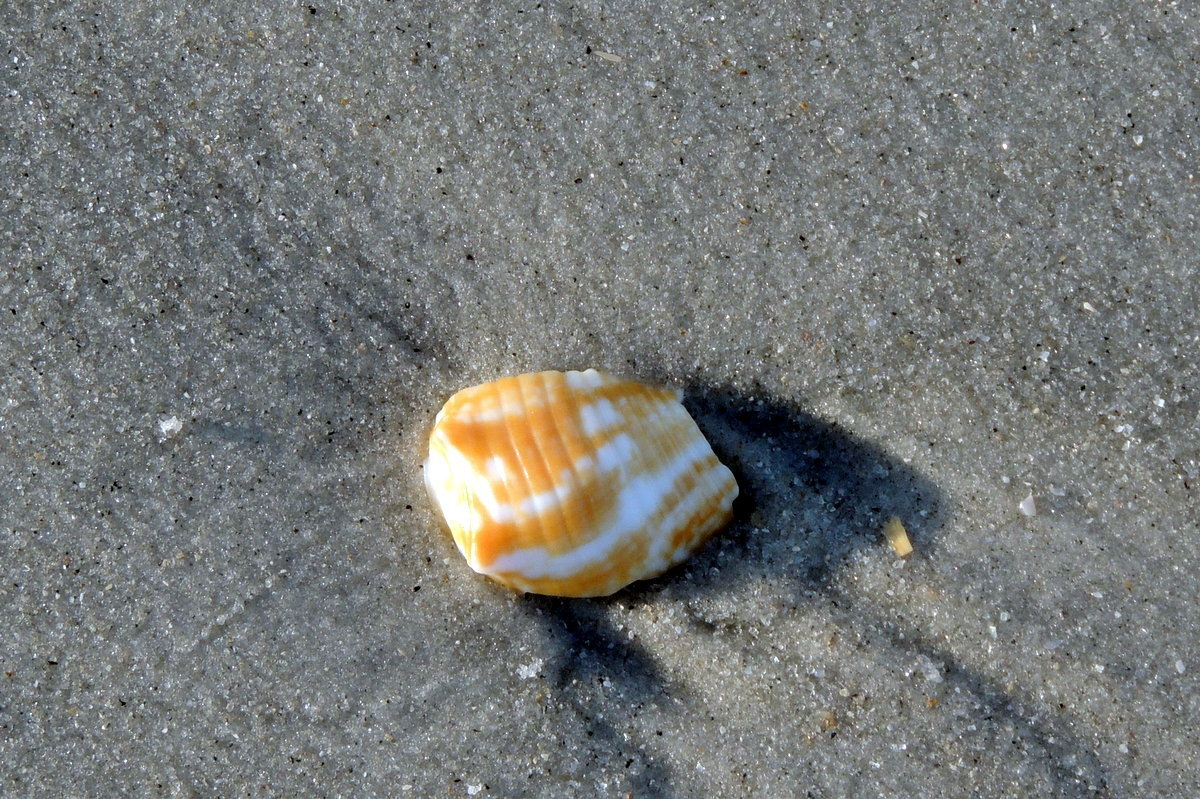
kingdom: Animalia
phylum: Mollusca
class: Gastropoda
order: Littorinimorpha
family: Strombidae
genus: Strombus
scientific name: Strombus alatus
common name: Florida fighting conch
